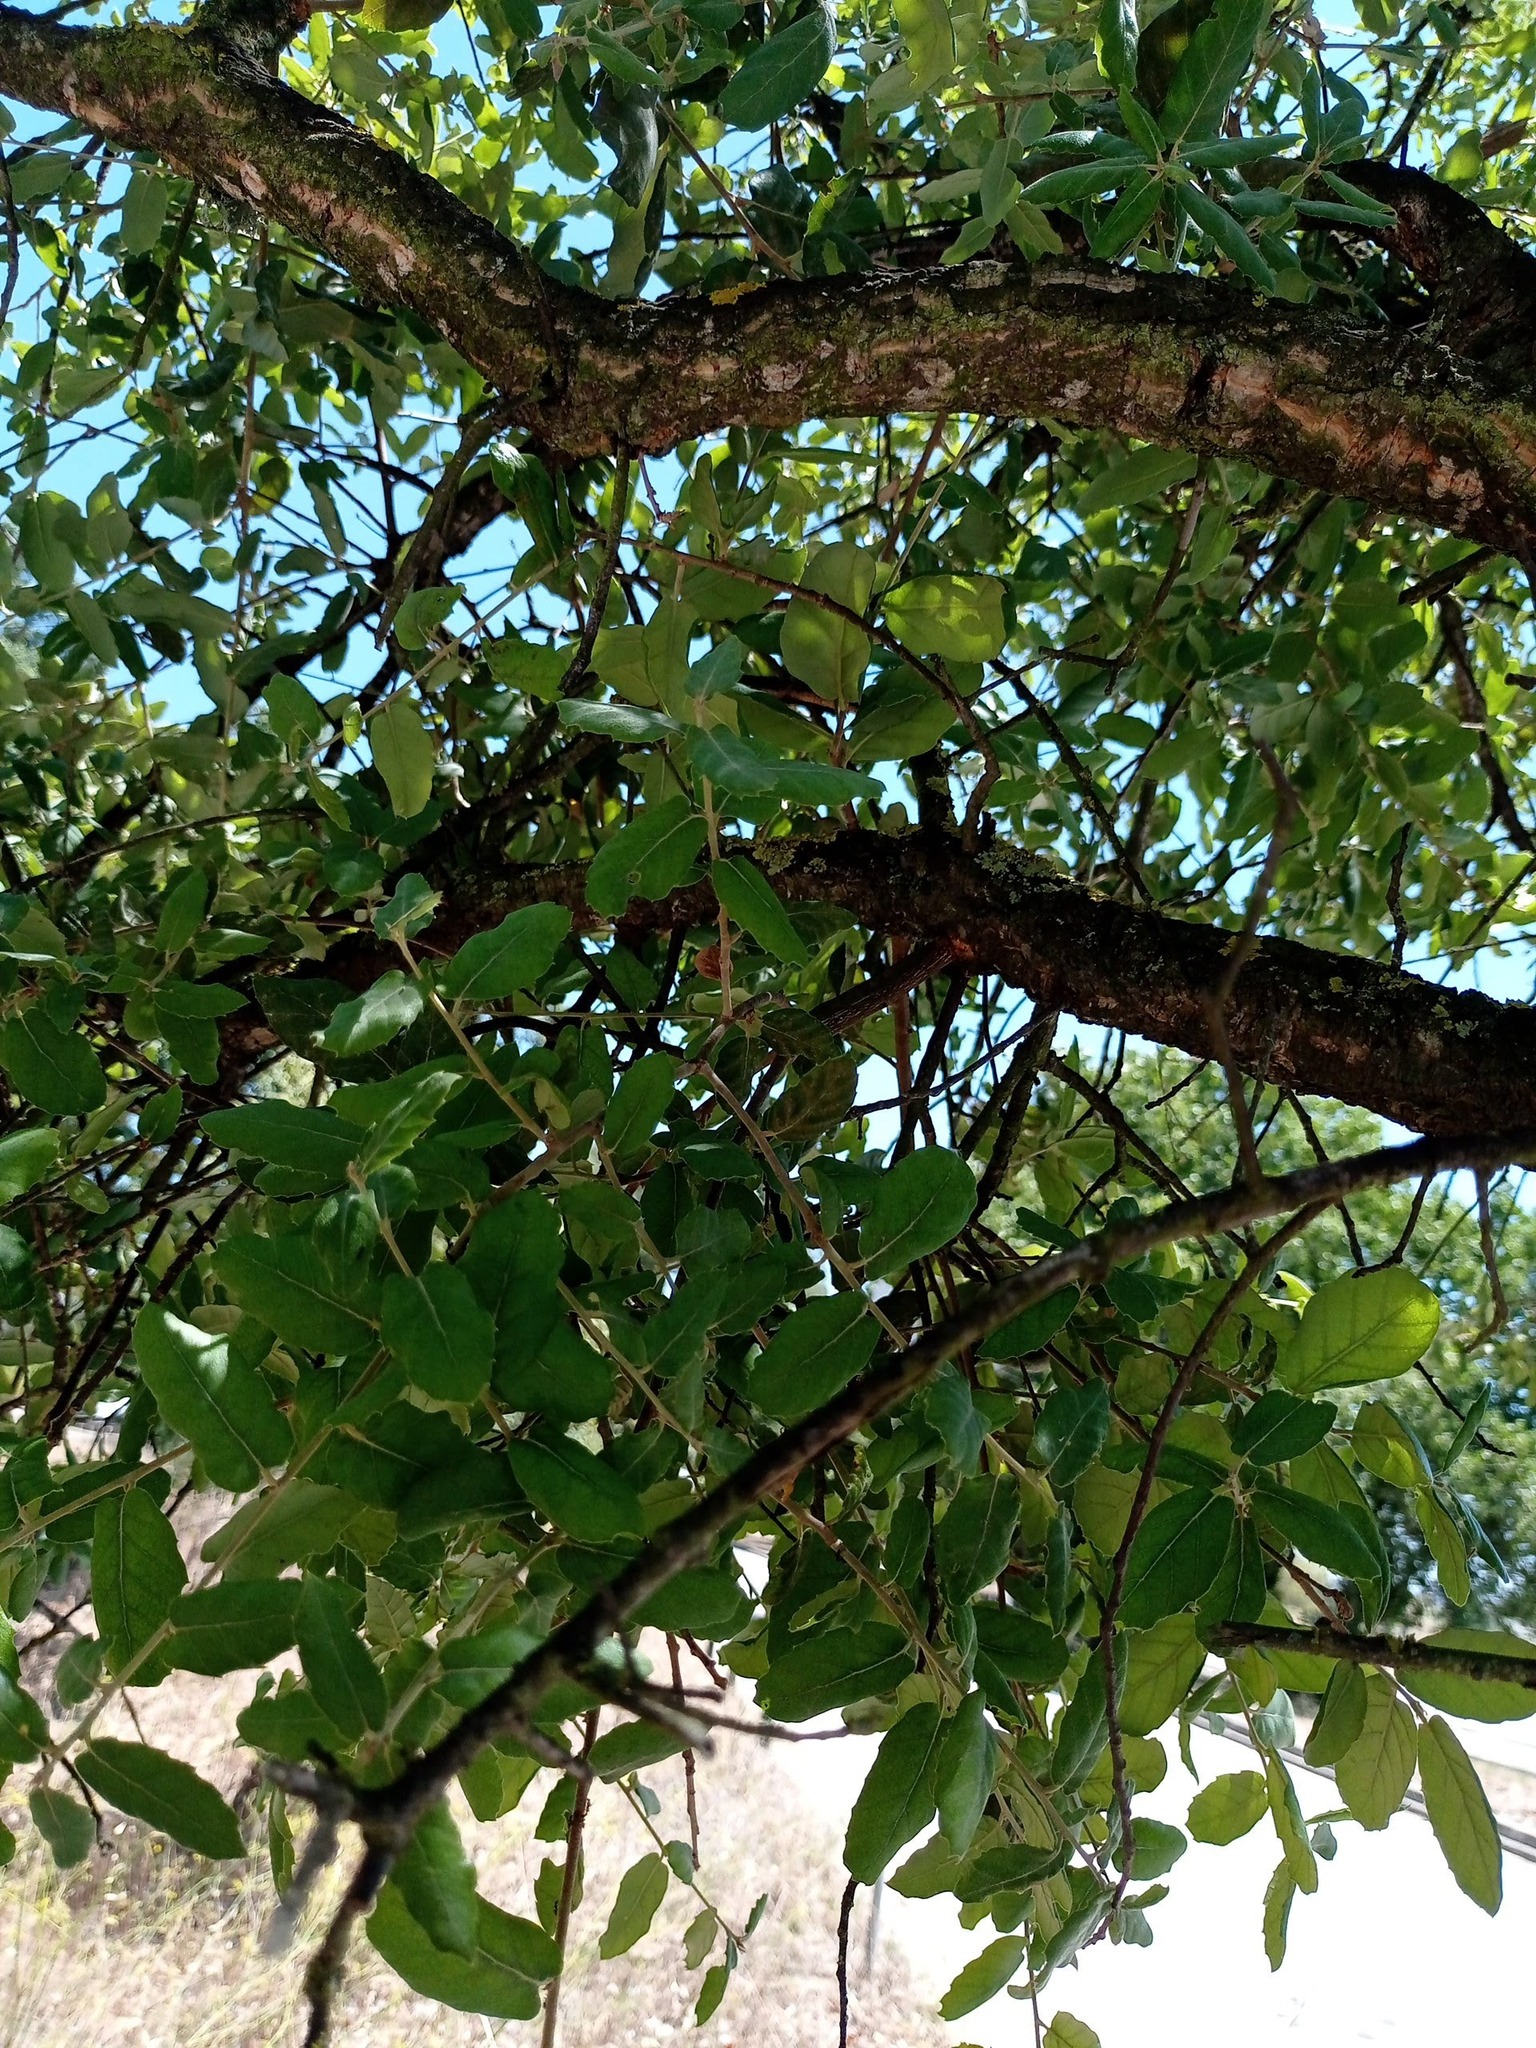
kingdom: Plantae
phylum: Tracheophyta
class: Magnoliopsida
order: Fagales
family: Fagaceae
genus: Quercus
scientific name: Quercus suber
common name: Cork oak
